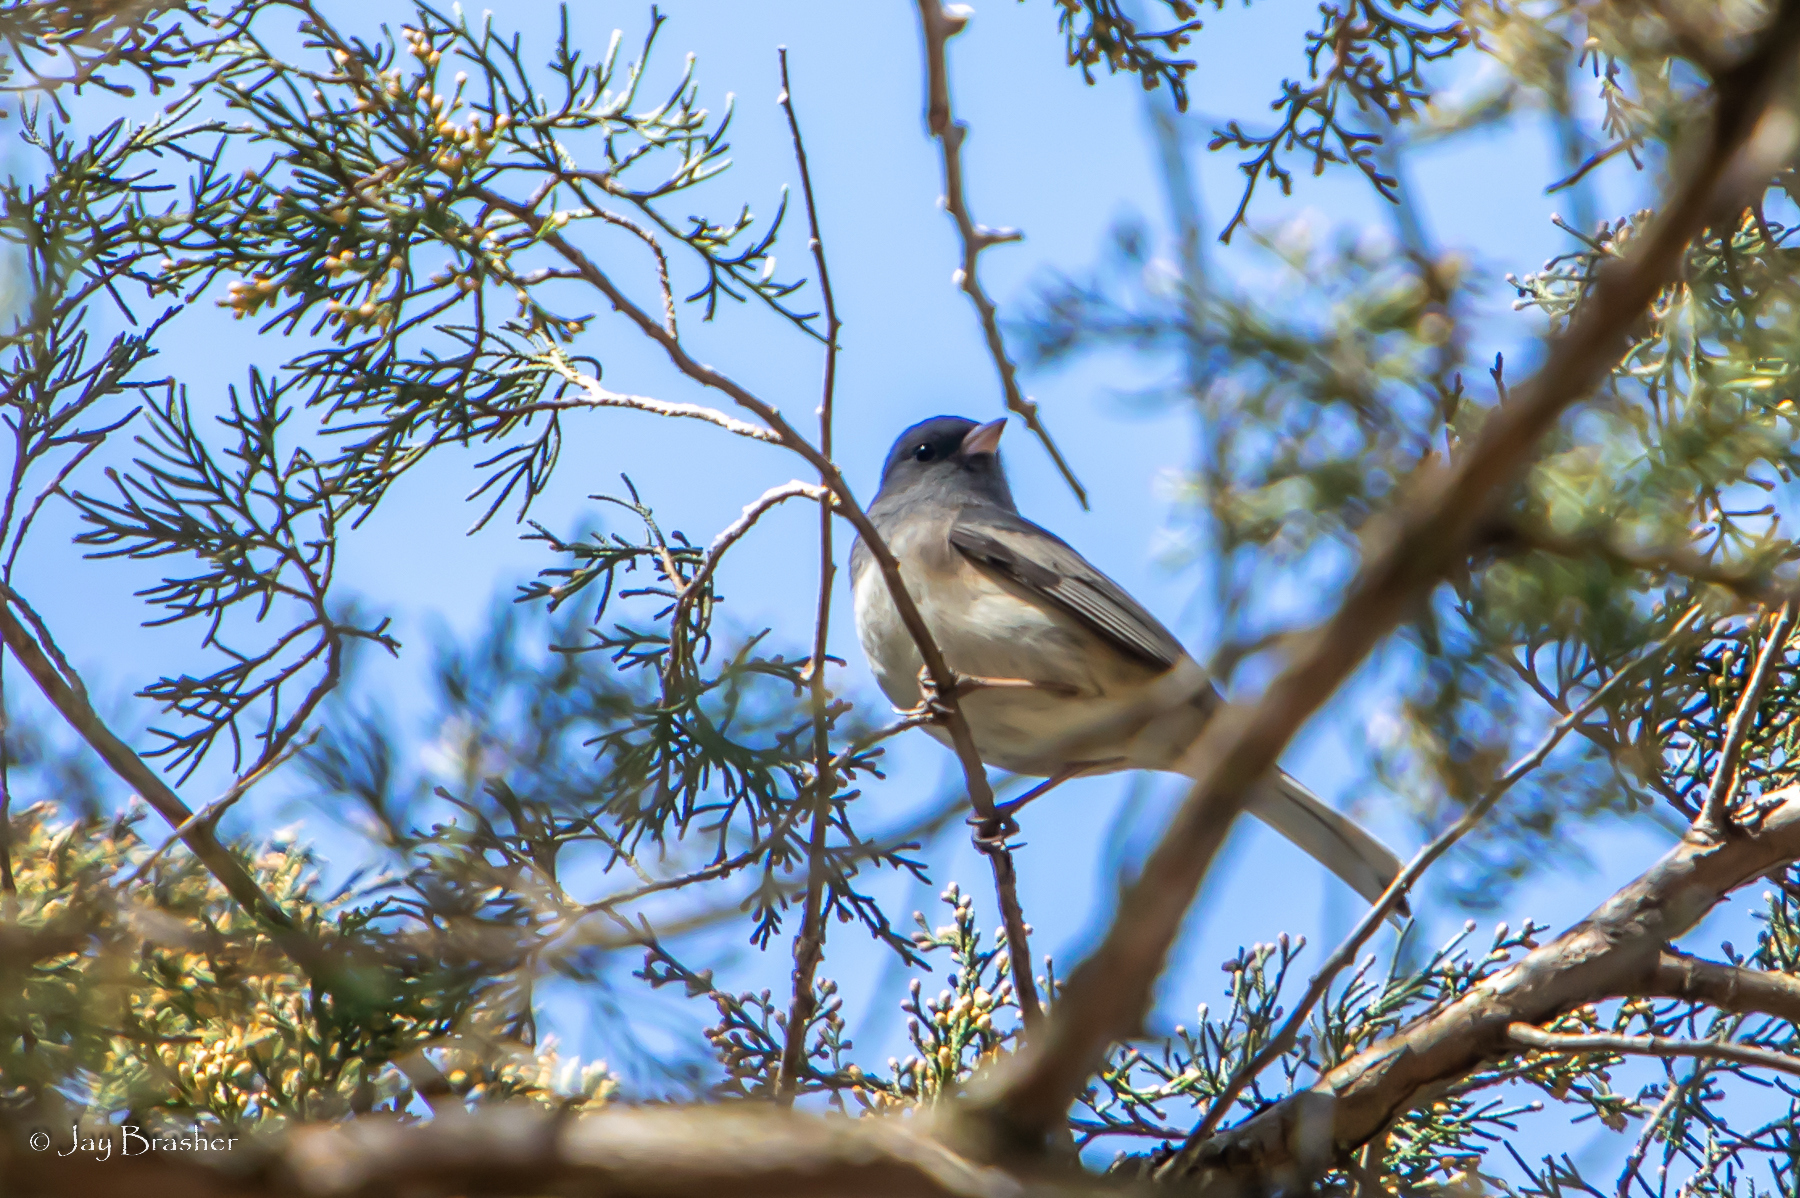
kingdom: Animalia
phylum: Chordata
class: Aves
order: Passeriformes
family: Passerellidae
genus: Junco
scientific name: Junco hyemalis
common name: Dark-eyed junco
